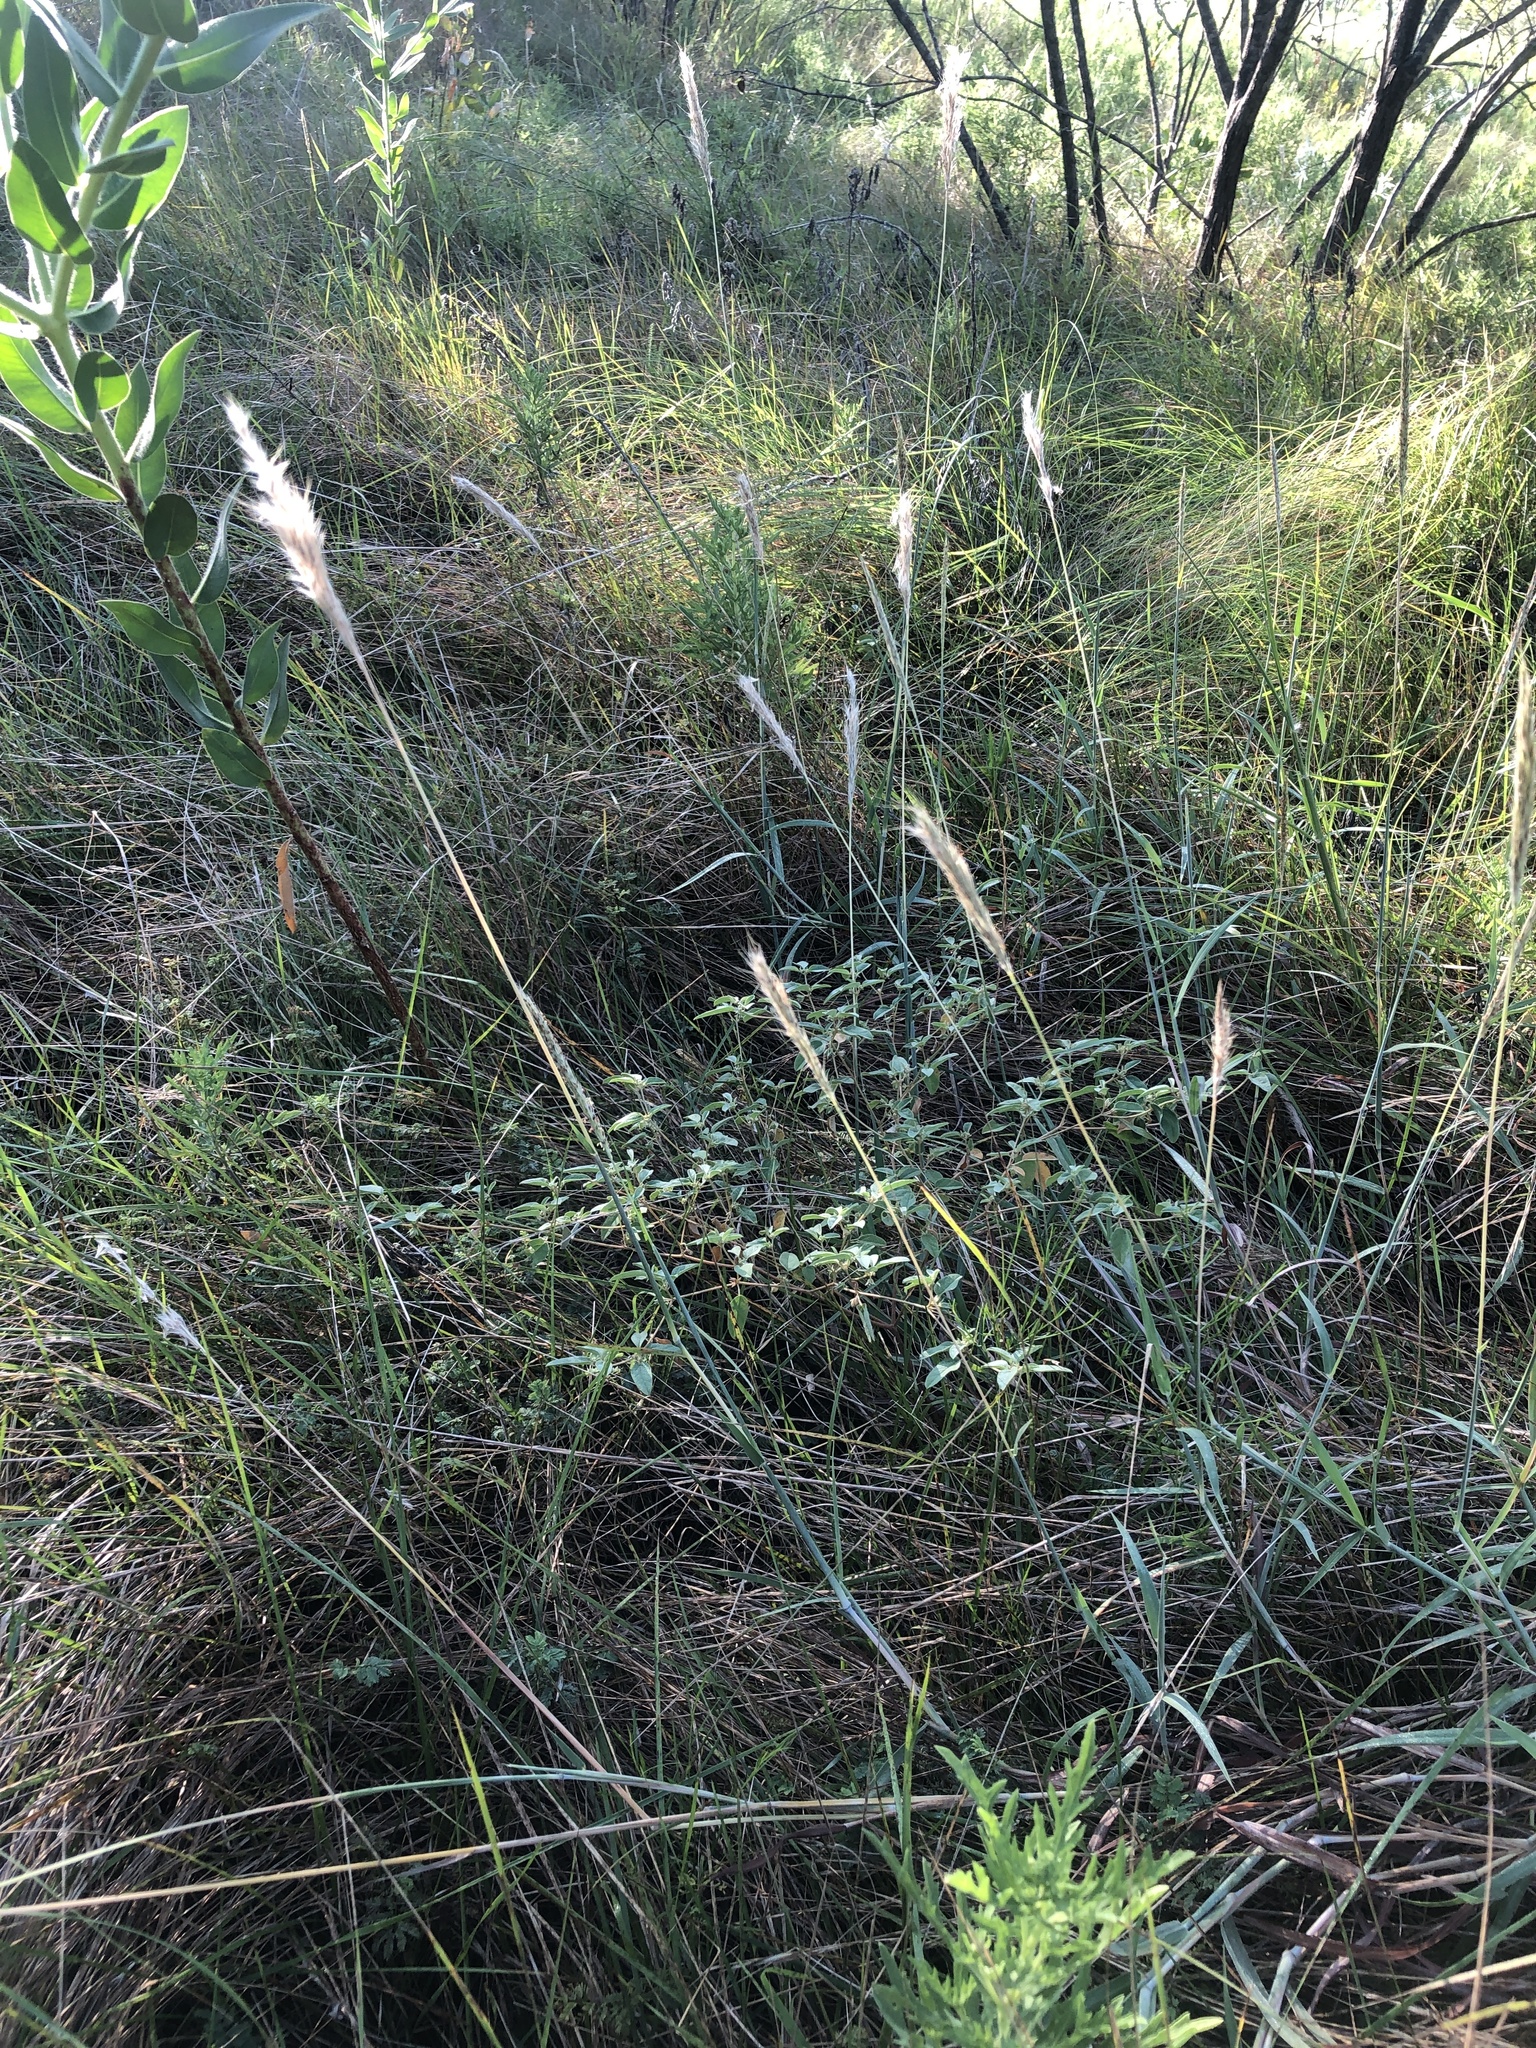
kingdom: Plantae
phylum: Tracheophyta
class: Liliopsida
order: Poales
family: Poaceae
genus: Bothriochloa
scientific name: Bothriochloa torreyana
